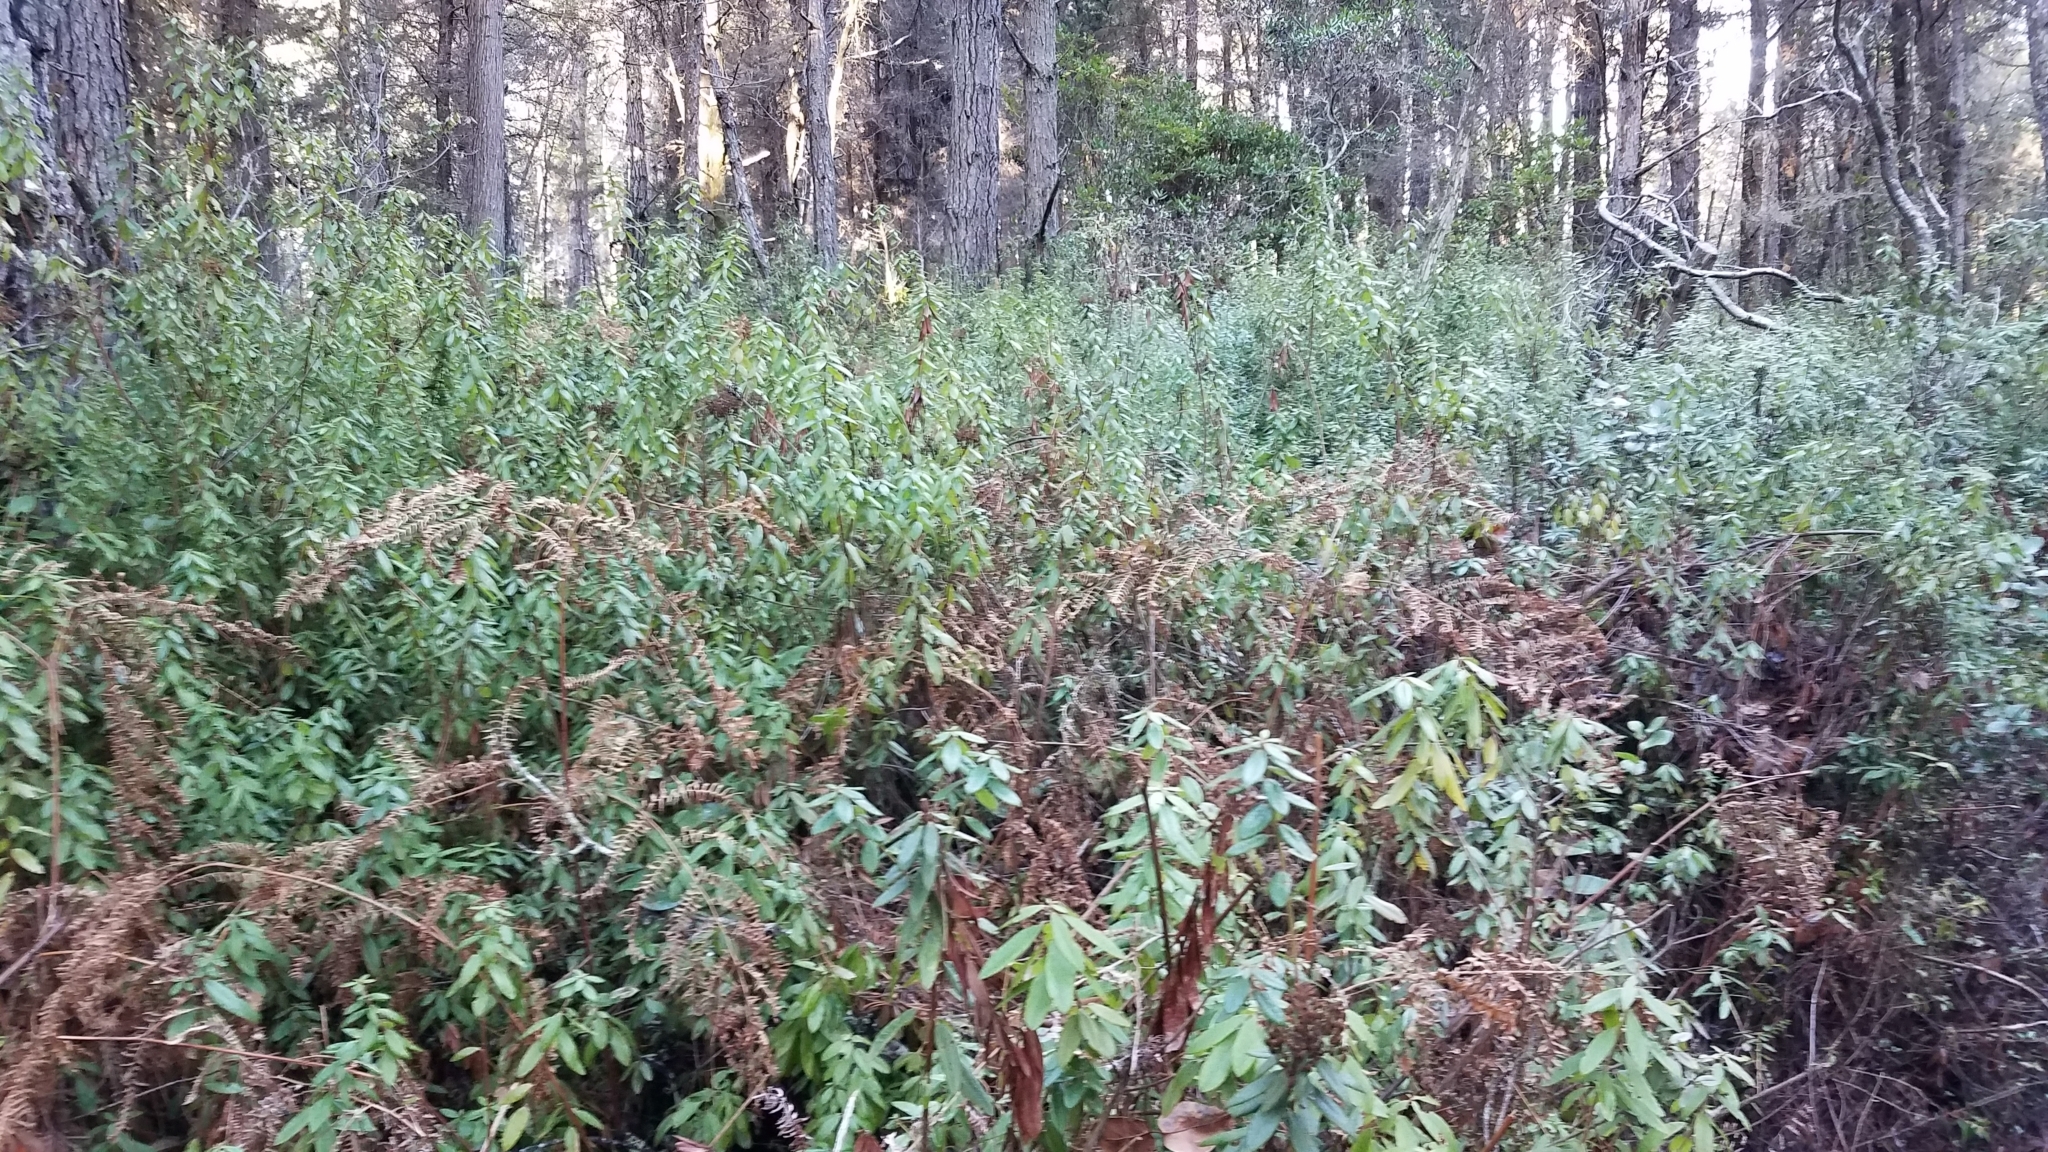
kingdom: Plantae
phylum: Tracheophyta
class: Magnoliopsida
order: Ericales
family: Ericaceae
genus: Rhododendron
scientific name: Rhododendron columbianum
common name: Western labrador tea
